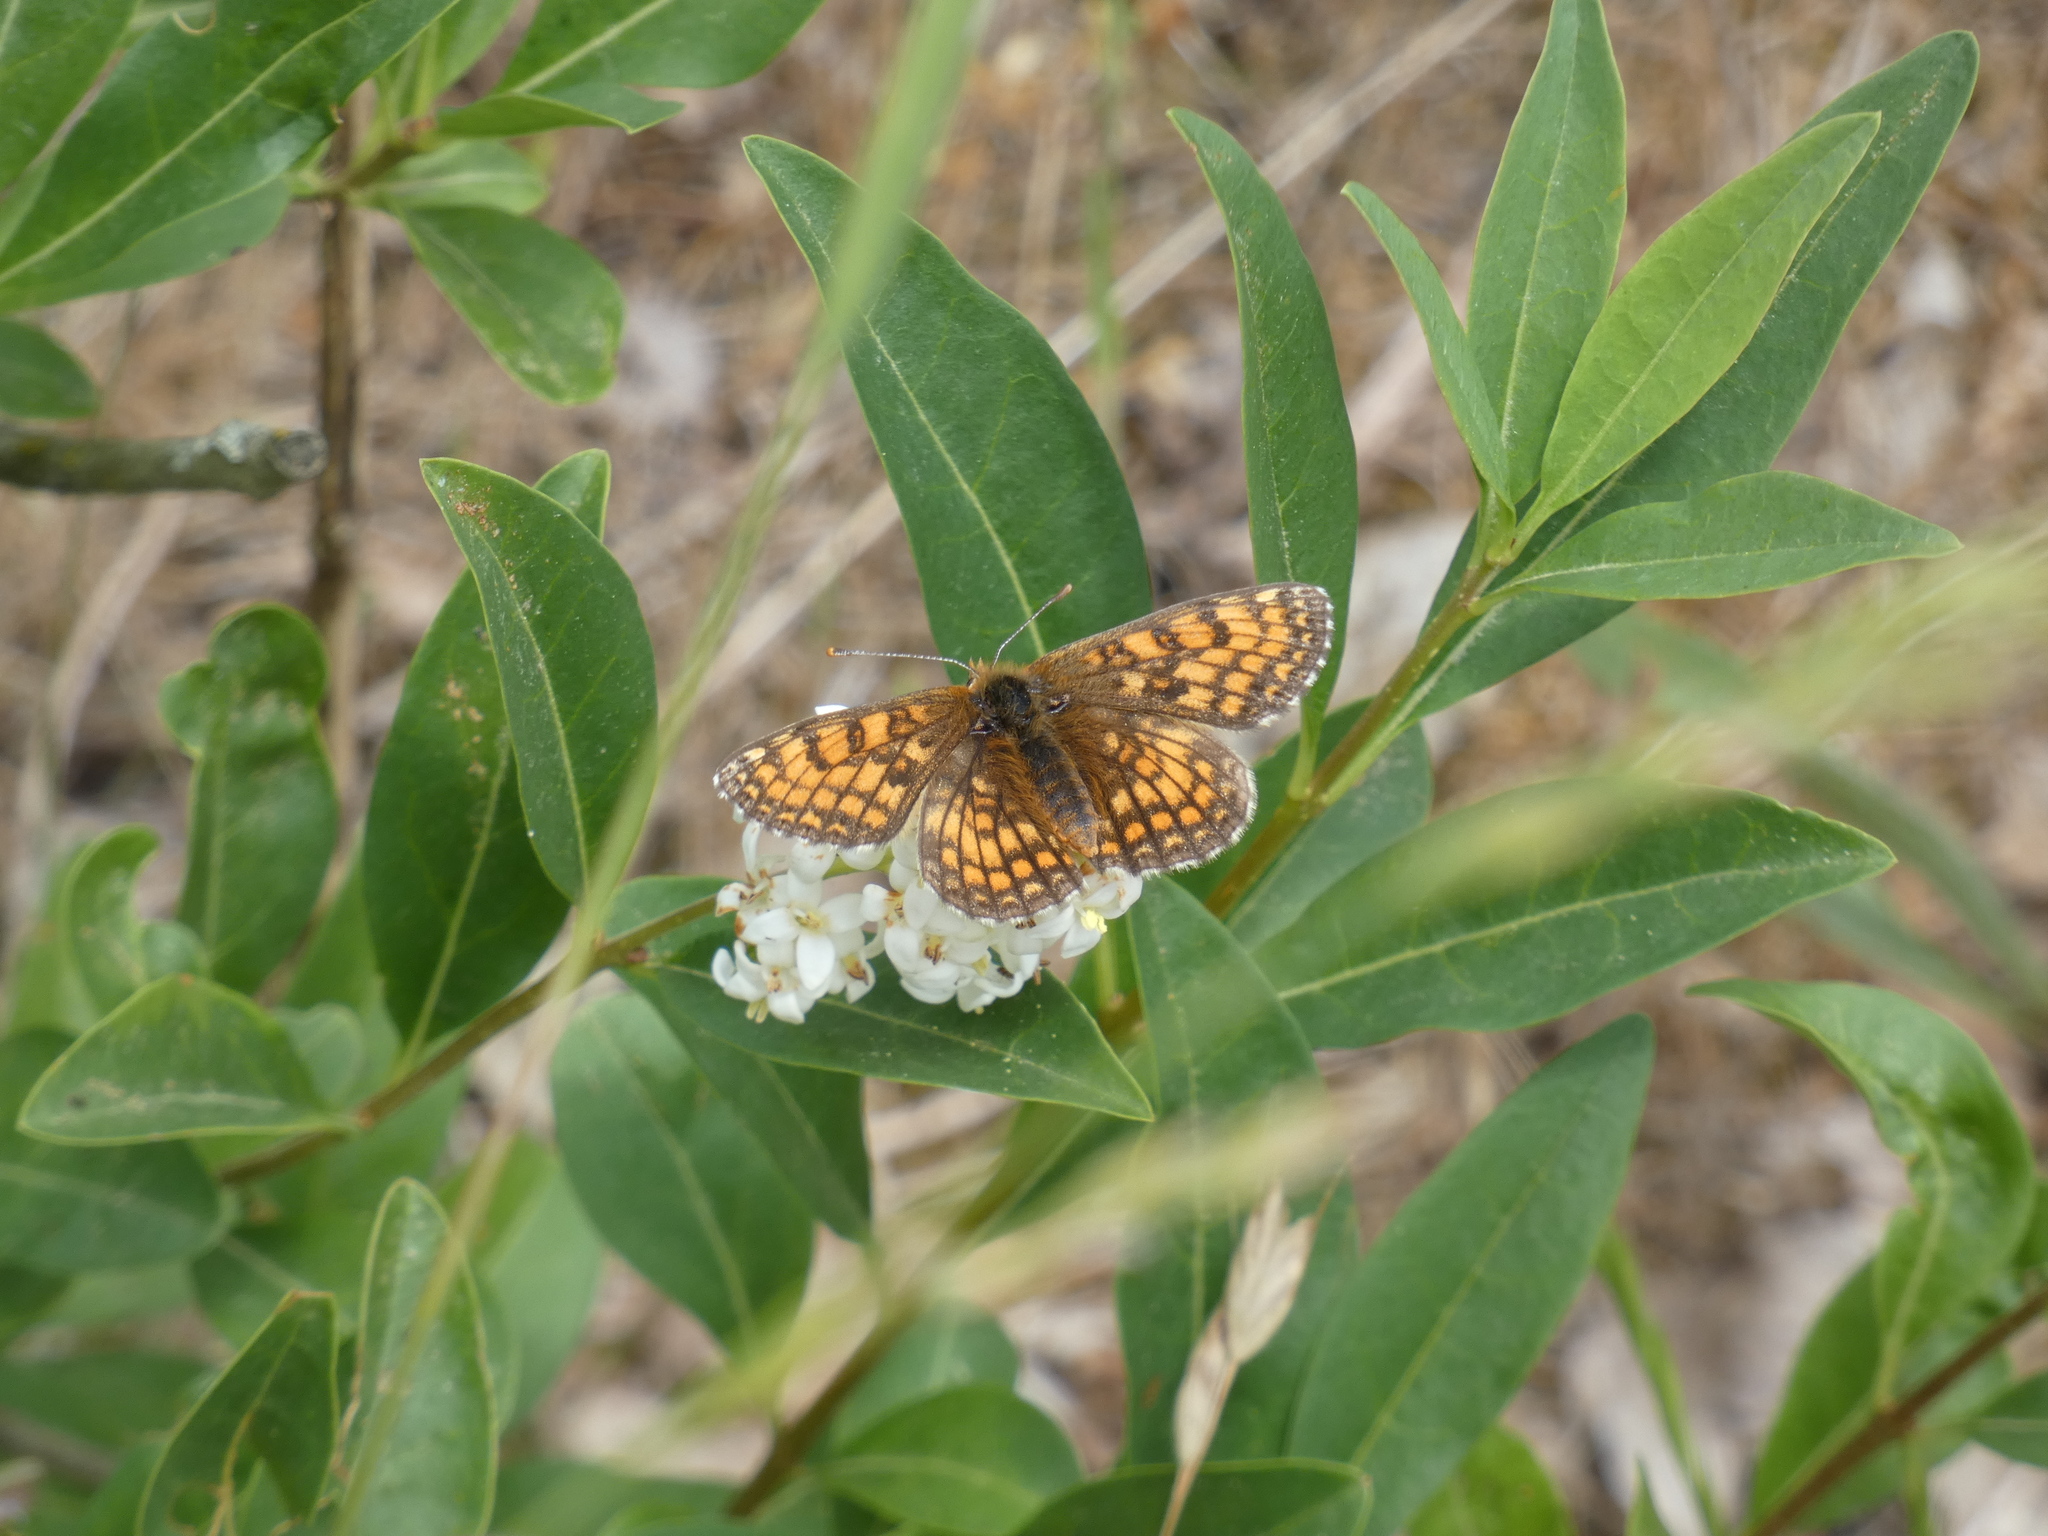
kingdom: Animalia
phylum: Arthropoda
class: Insecta
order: Lepidoptera
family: Nymphalidae
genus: Mellicta
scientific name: Mellicta parthenoides
